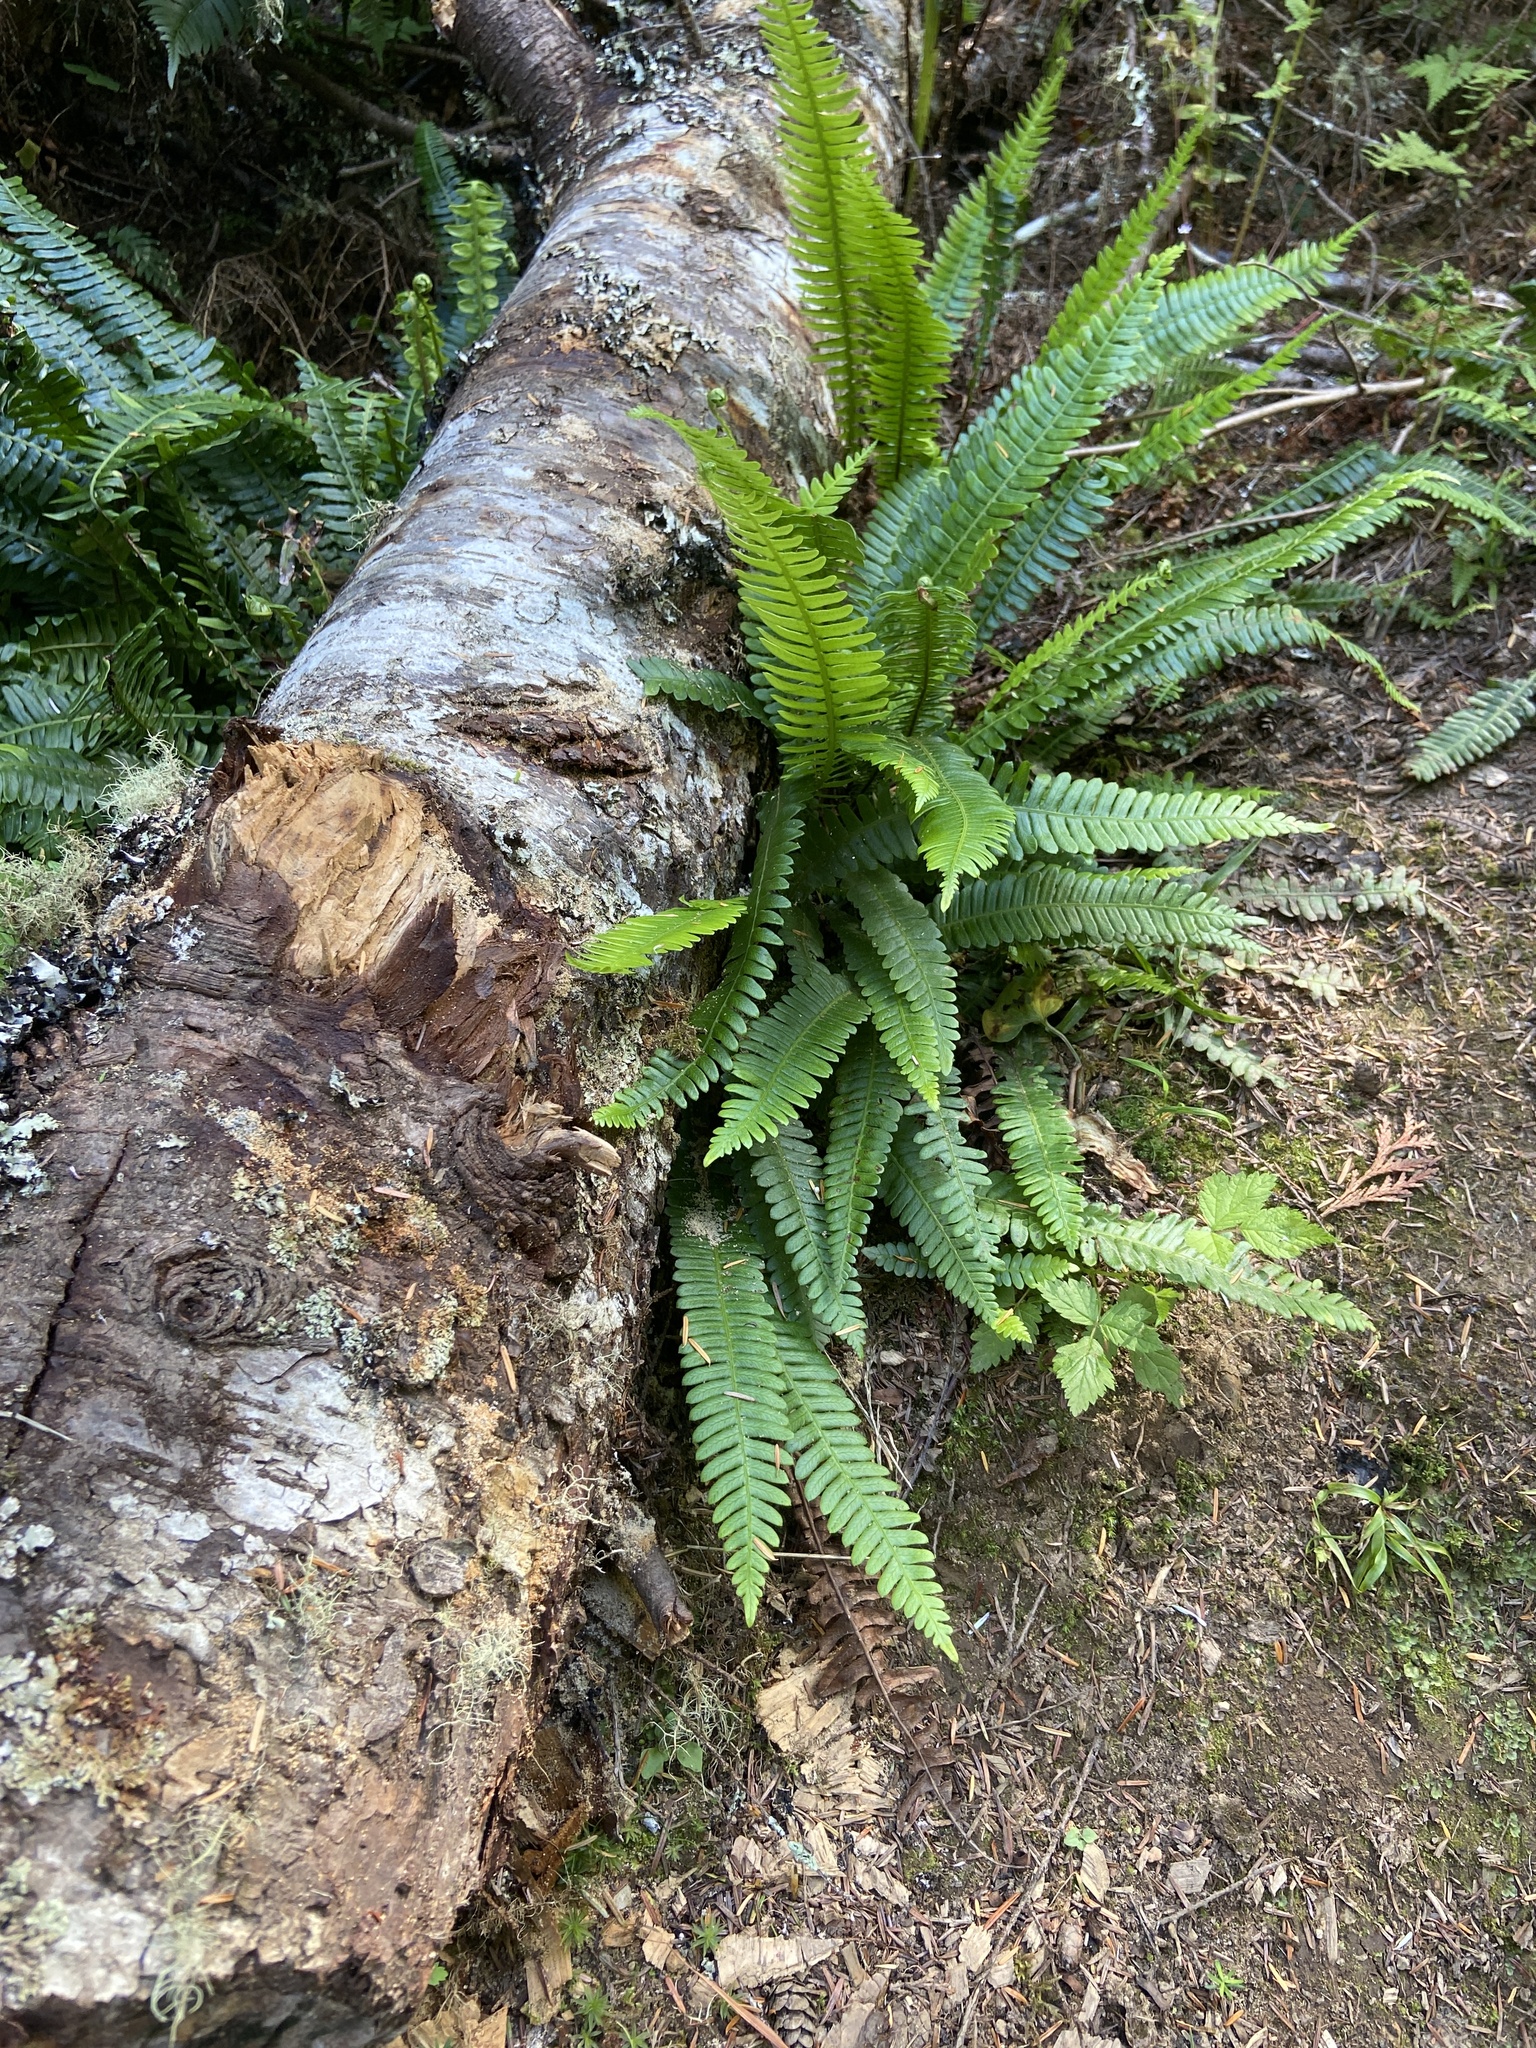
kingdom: Plantae
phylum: Tracheophyta
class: Polypodiopsida
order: Polypodiales
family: Blechnaceae
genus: Struthiopteris
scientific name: Struthiopteris spicant
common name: Deer fern
